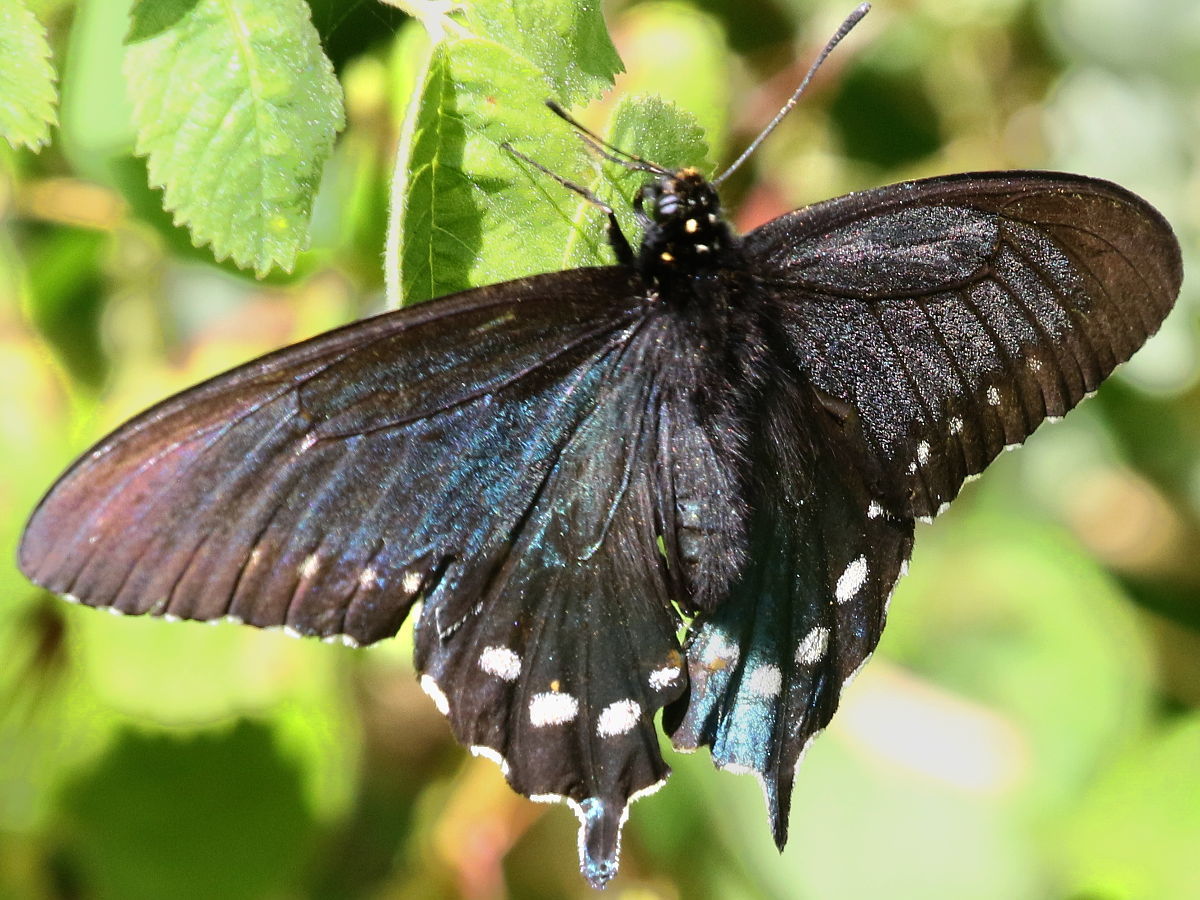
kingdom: Animalia
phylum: Arthropoda
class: Insecta
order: Lepidoptera
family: Papilionidae
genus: Battus
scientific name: Battus philenor
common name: Pipevine swallowtail
